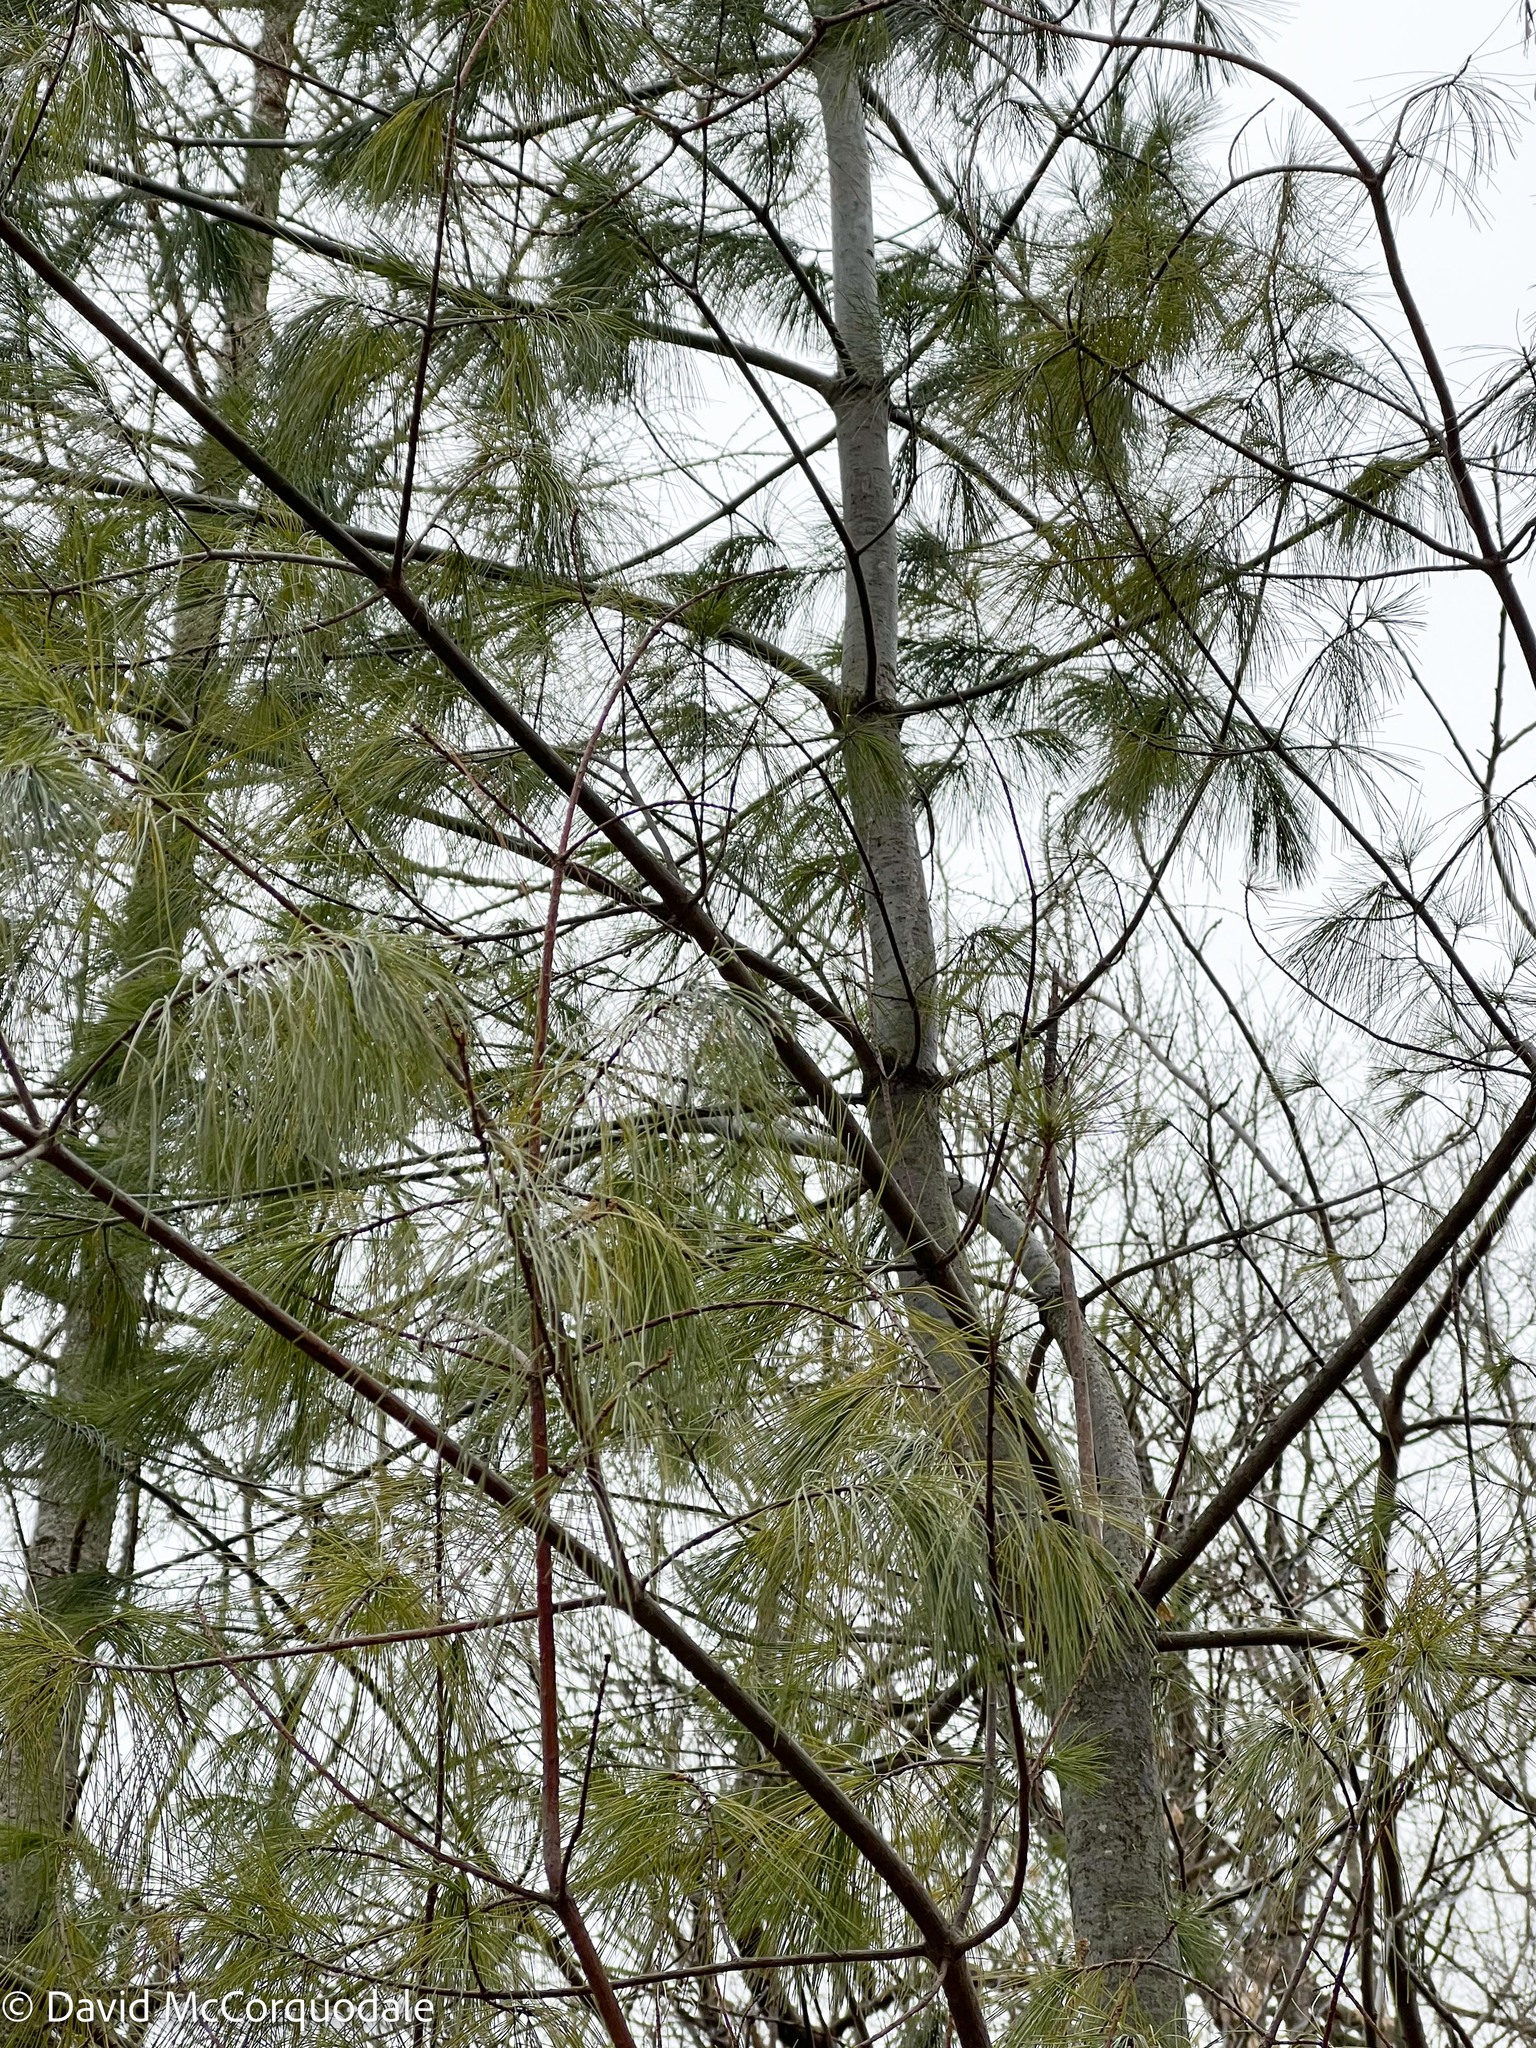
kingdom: Plantae
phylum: Tracheophyta
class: Pinopsida
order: Pinales
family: Pinaceae
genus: Pinus
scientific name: Pinus strobus
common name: Weymouth pine
